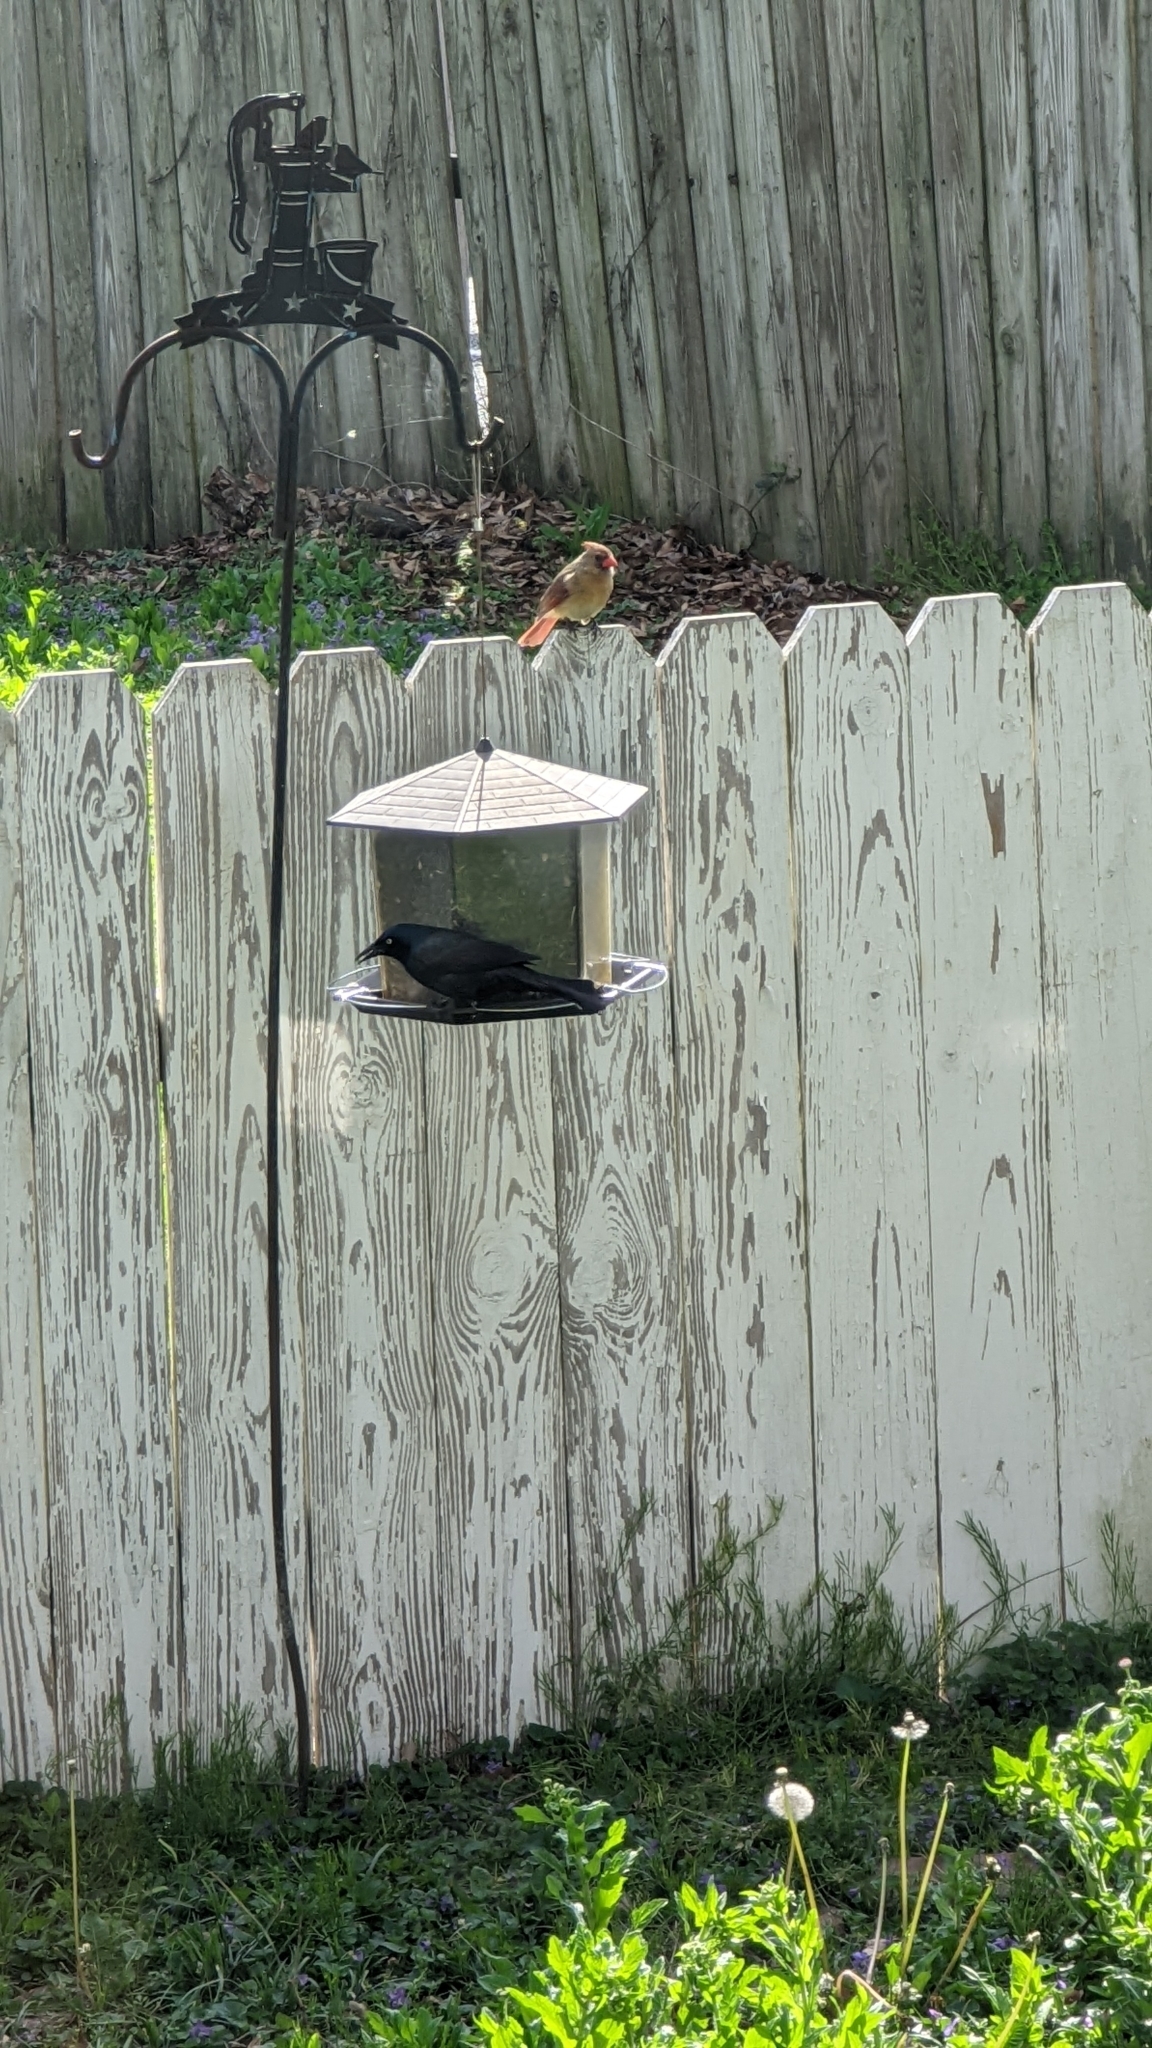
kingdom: Animalia
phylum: Chordata
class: Aves
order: Passeriformes
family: Icteridae
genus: Quiscalus
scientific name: Quiscalus quiscula
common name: Common grackle
